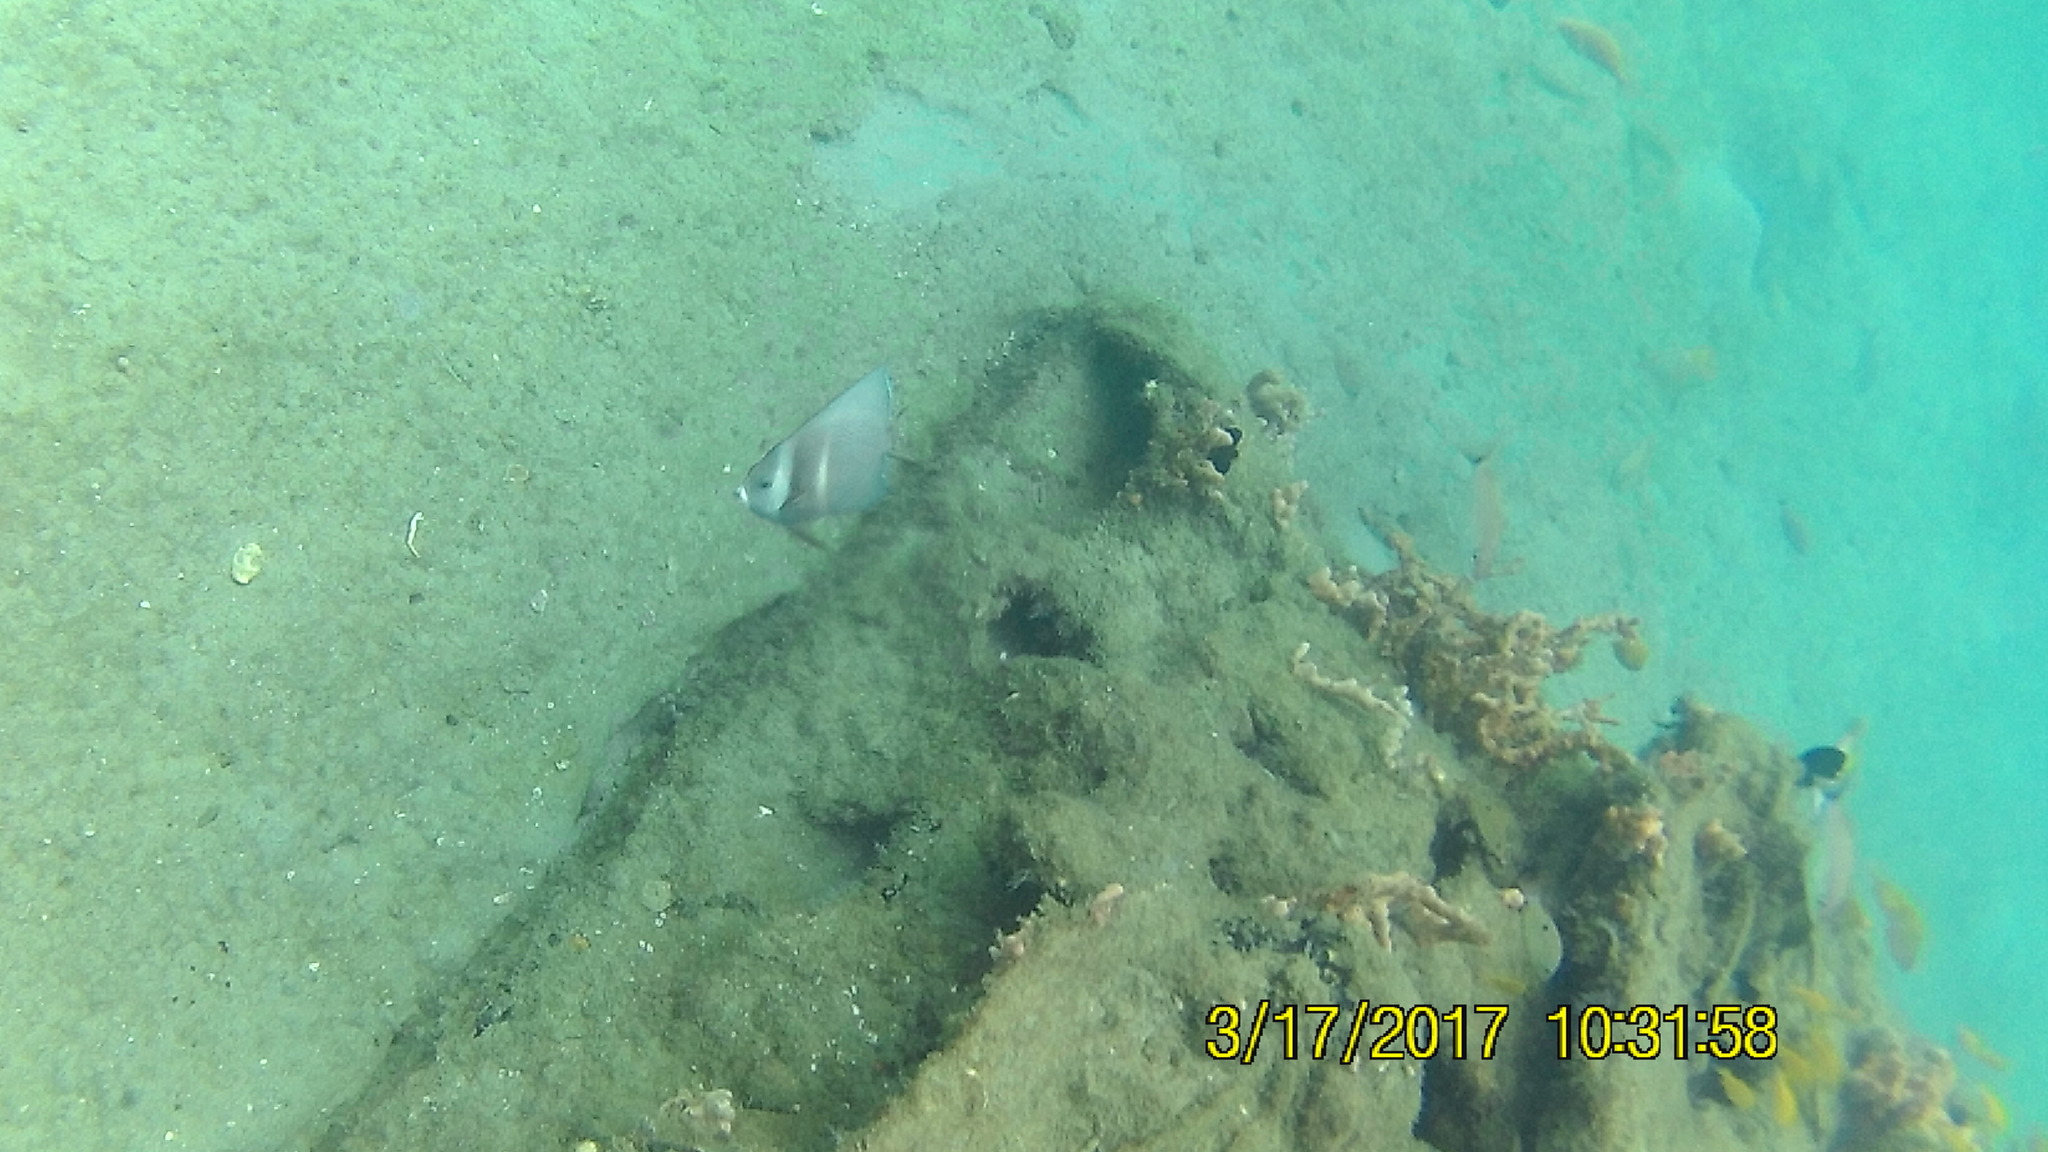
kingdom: Animalia
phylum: Chordata
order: Perciformes
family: Pomacanthidae
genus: Pomacanthus
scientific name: Pomacanthus arcuatus
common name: Gray angelfish
